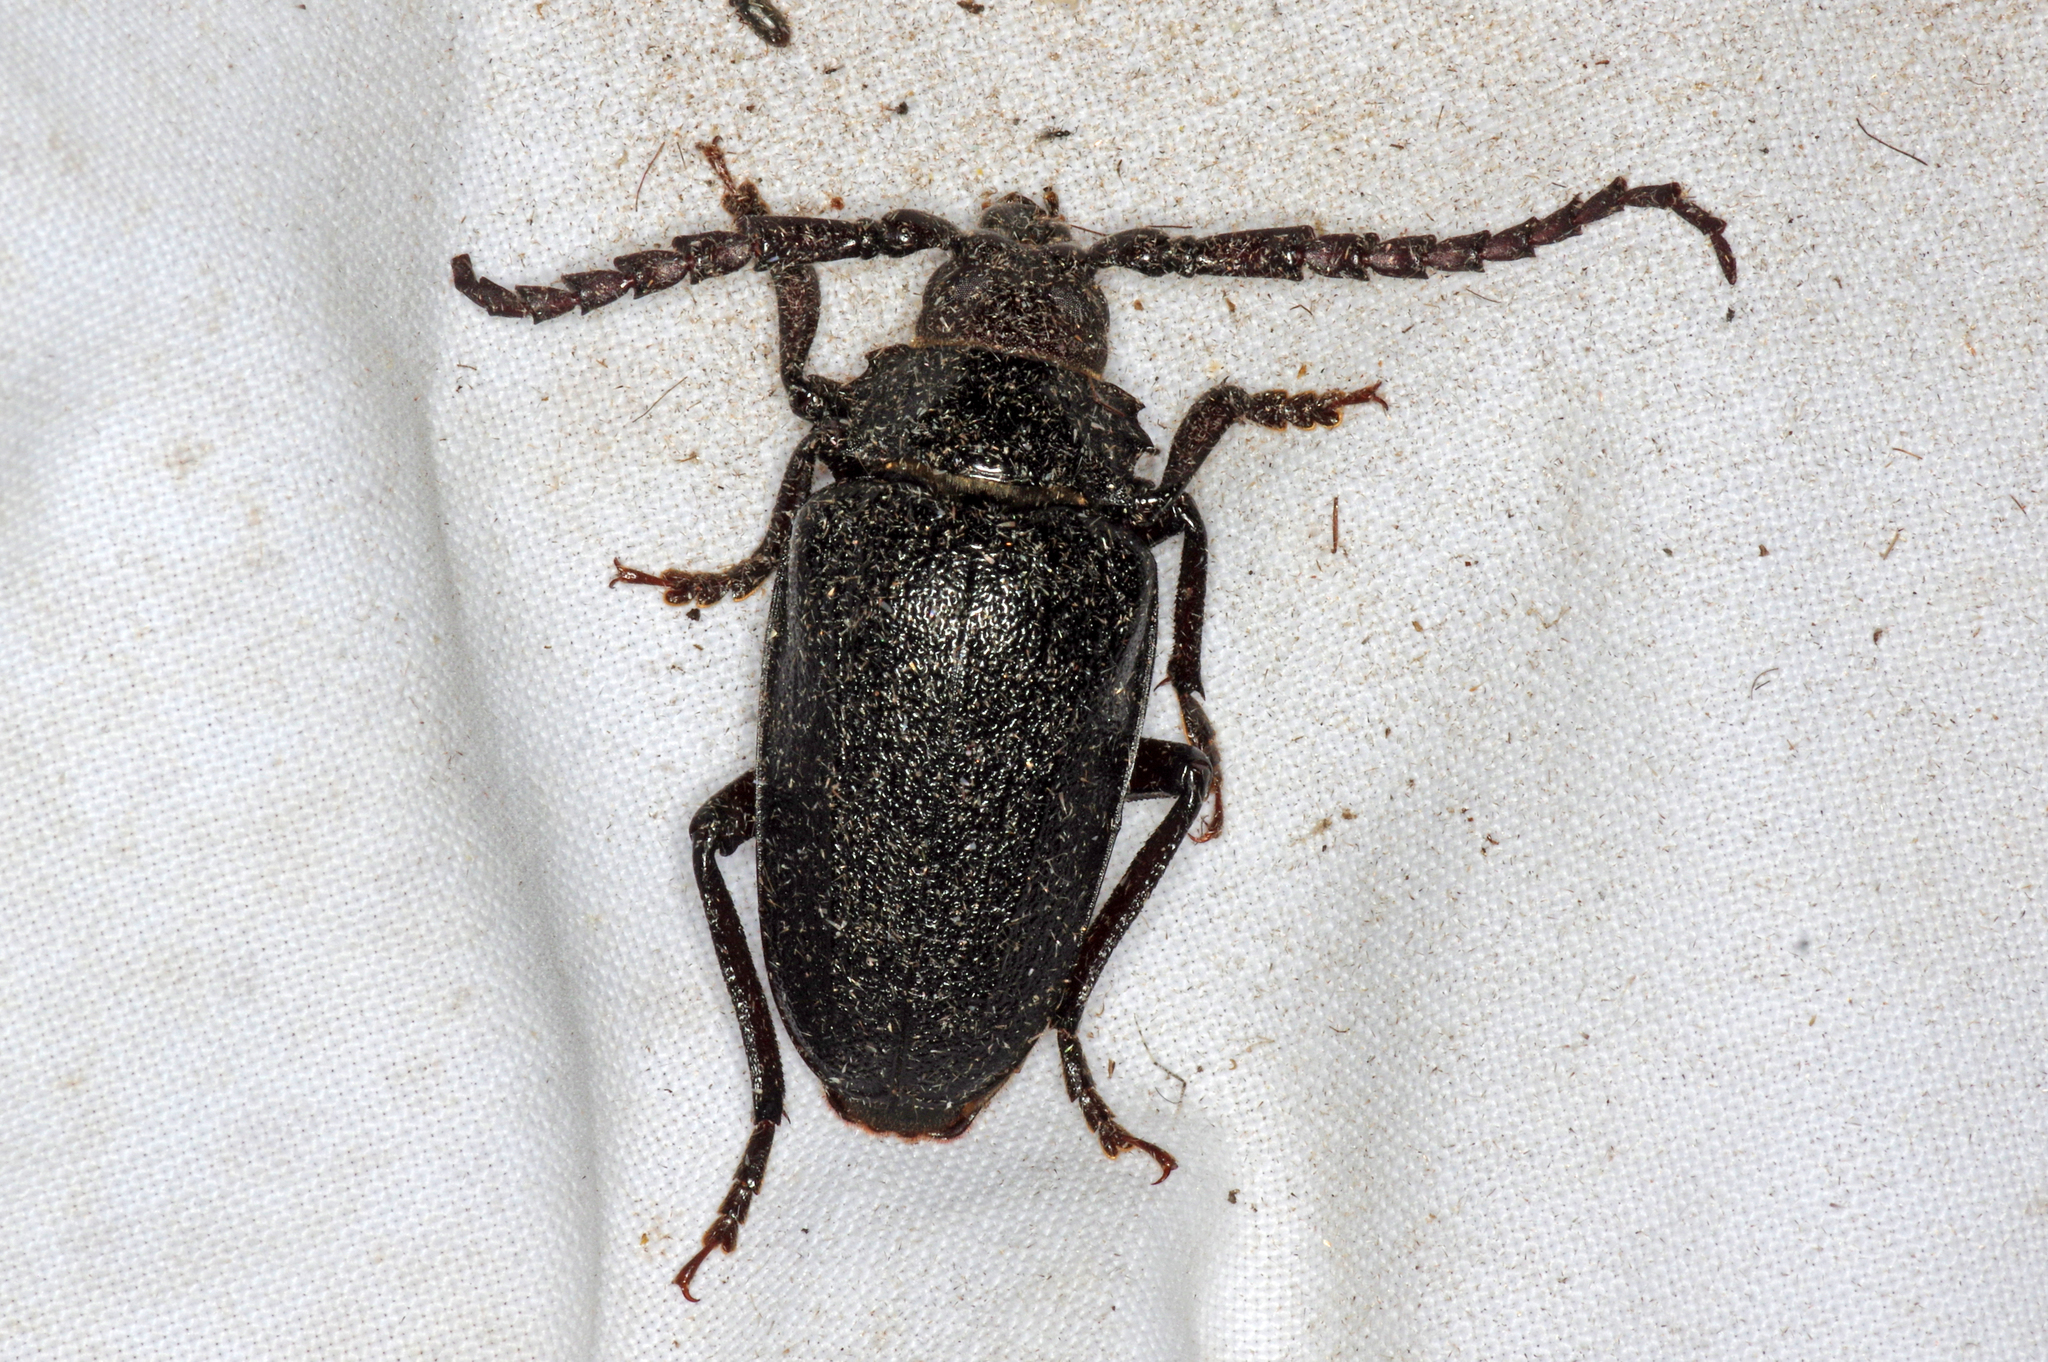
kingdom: Animalia
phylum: Arthropoda
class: Insecta
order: Coleoptera
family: Cerambycidae
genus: Prionus
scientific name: Prionus laticollis
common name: Broad necked prionus
